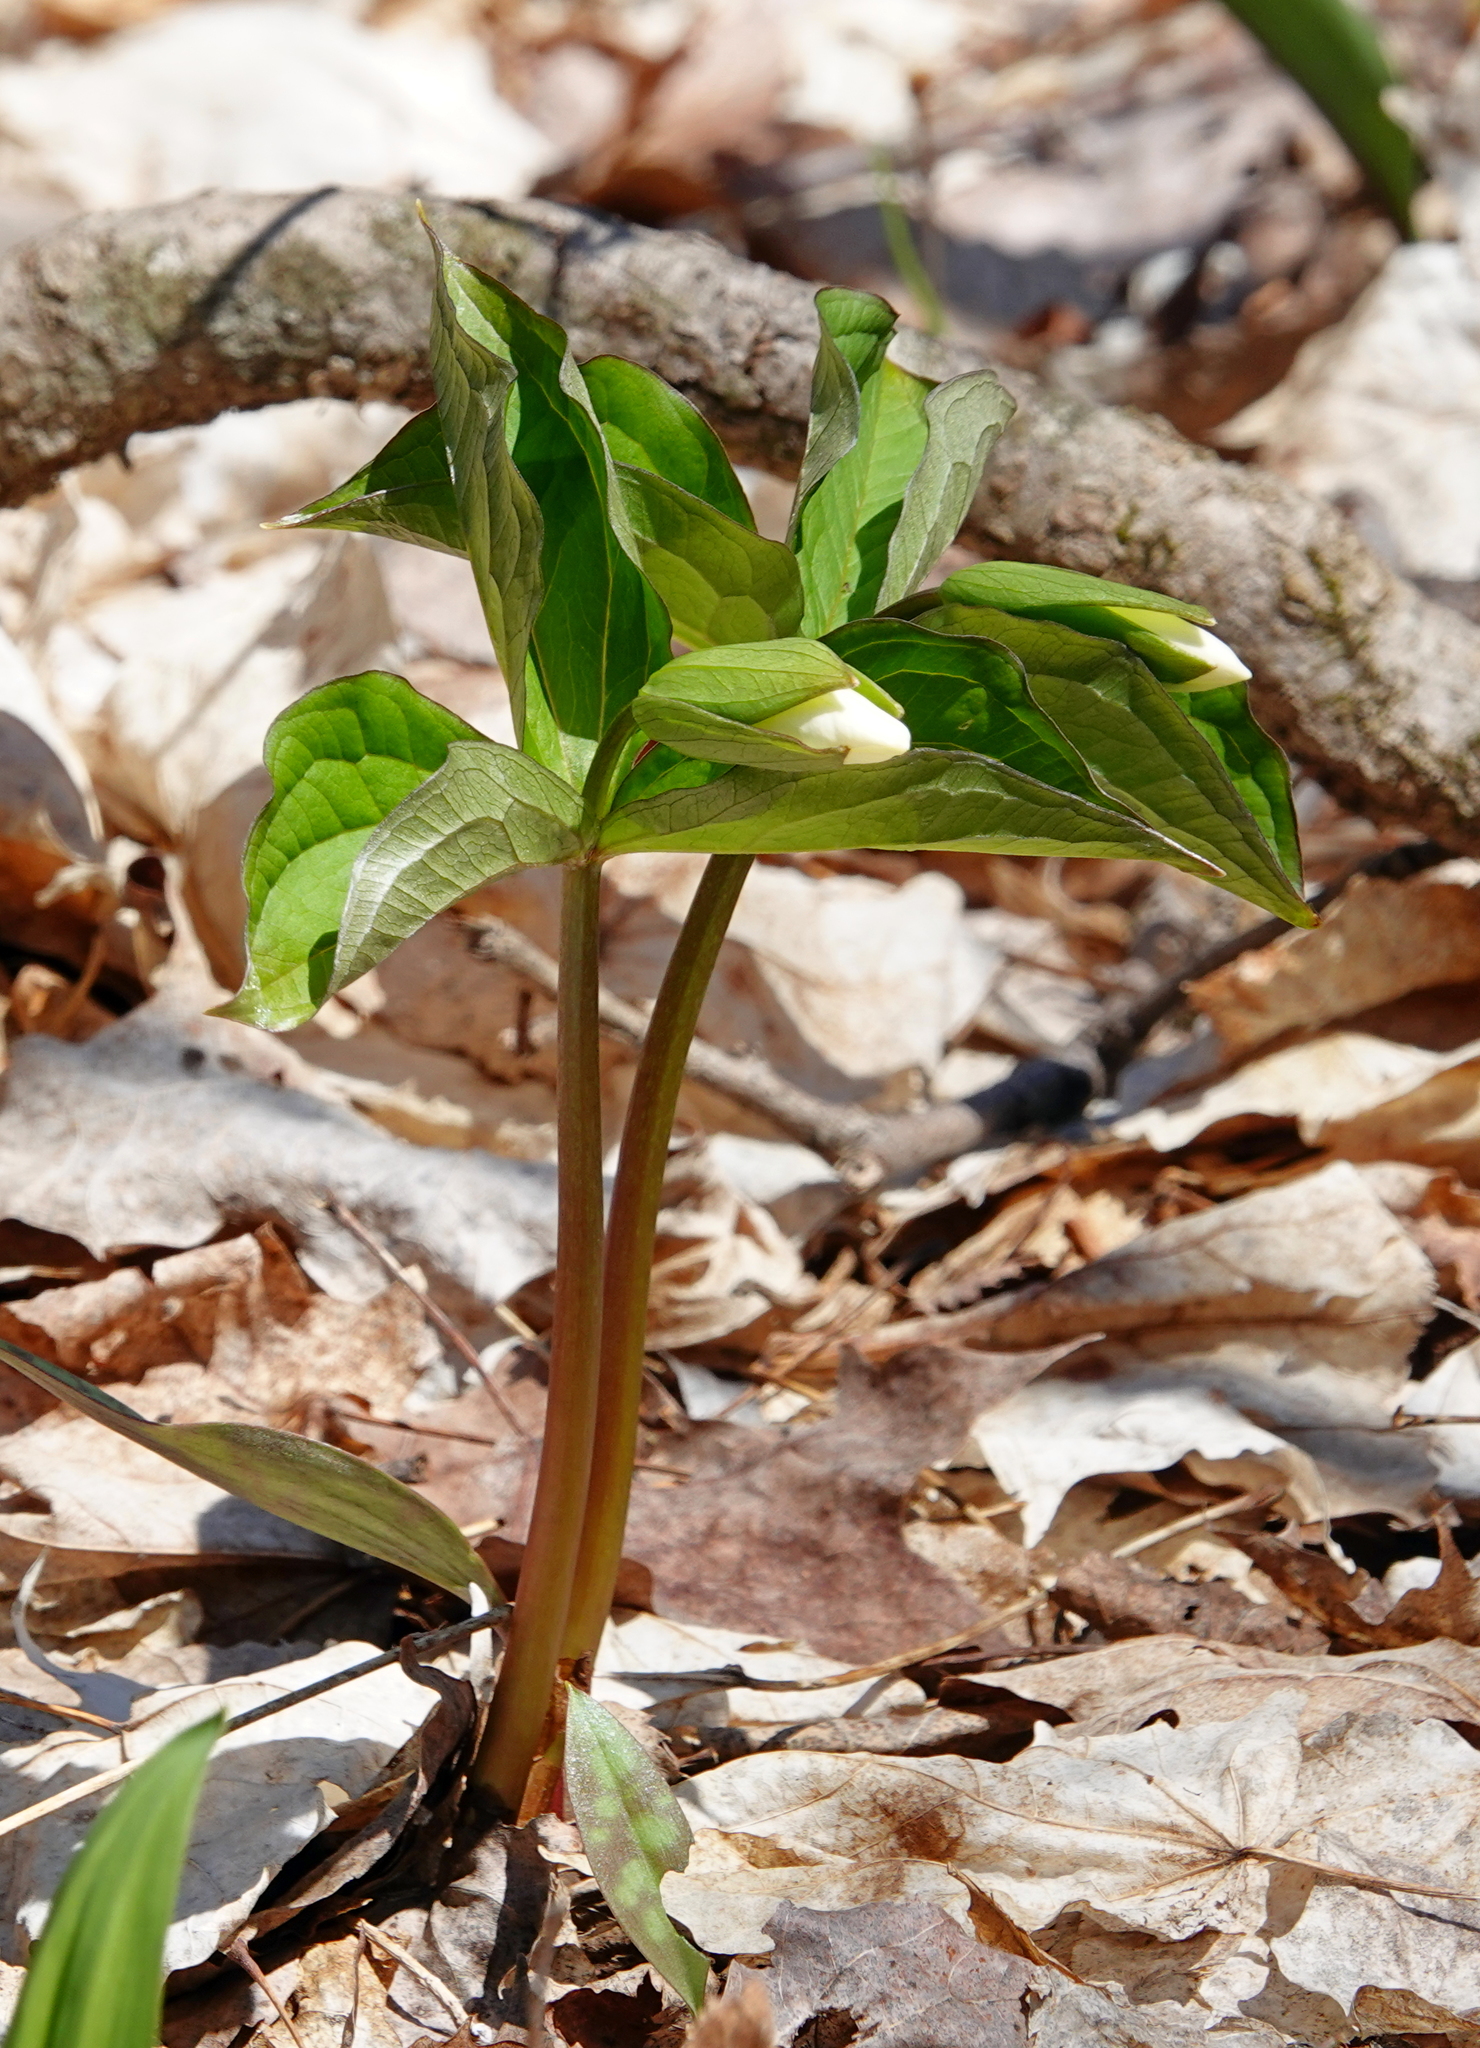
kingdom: Plantae
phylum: Tracheophyta
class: Liliopsida
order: Liliales
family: Melanthiaceae
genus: Trillium
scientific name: Trillium grandiflorum
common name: Great white trillium
